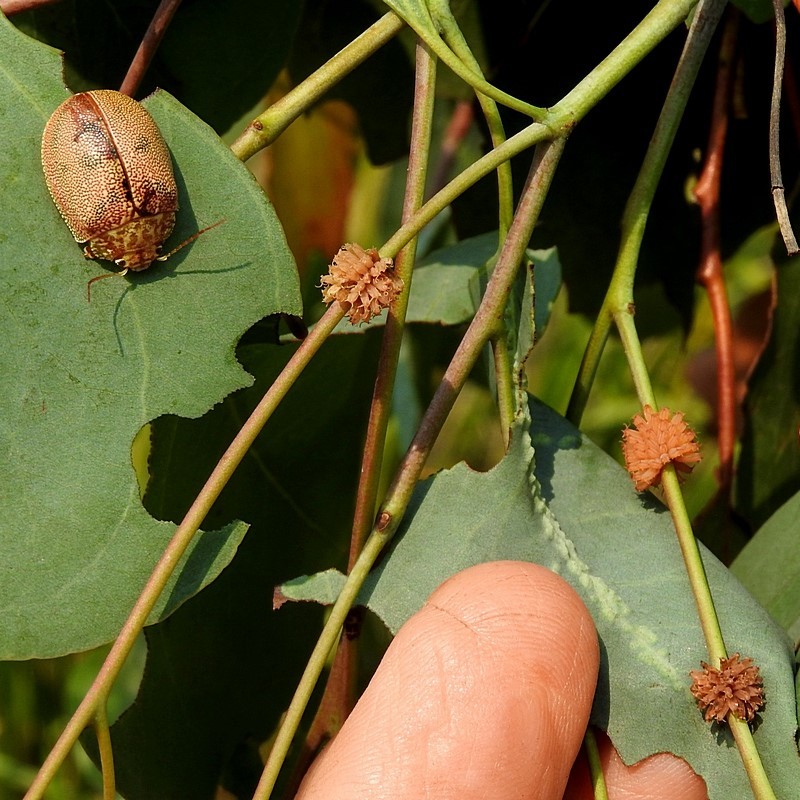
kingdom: Animalia
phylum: Arthropoda
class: Insecta
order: Coleoptera
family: Chrysomelidae
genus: Paropsis
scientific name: Paropsis
